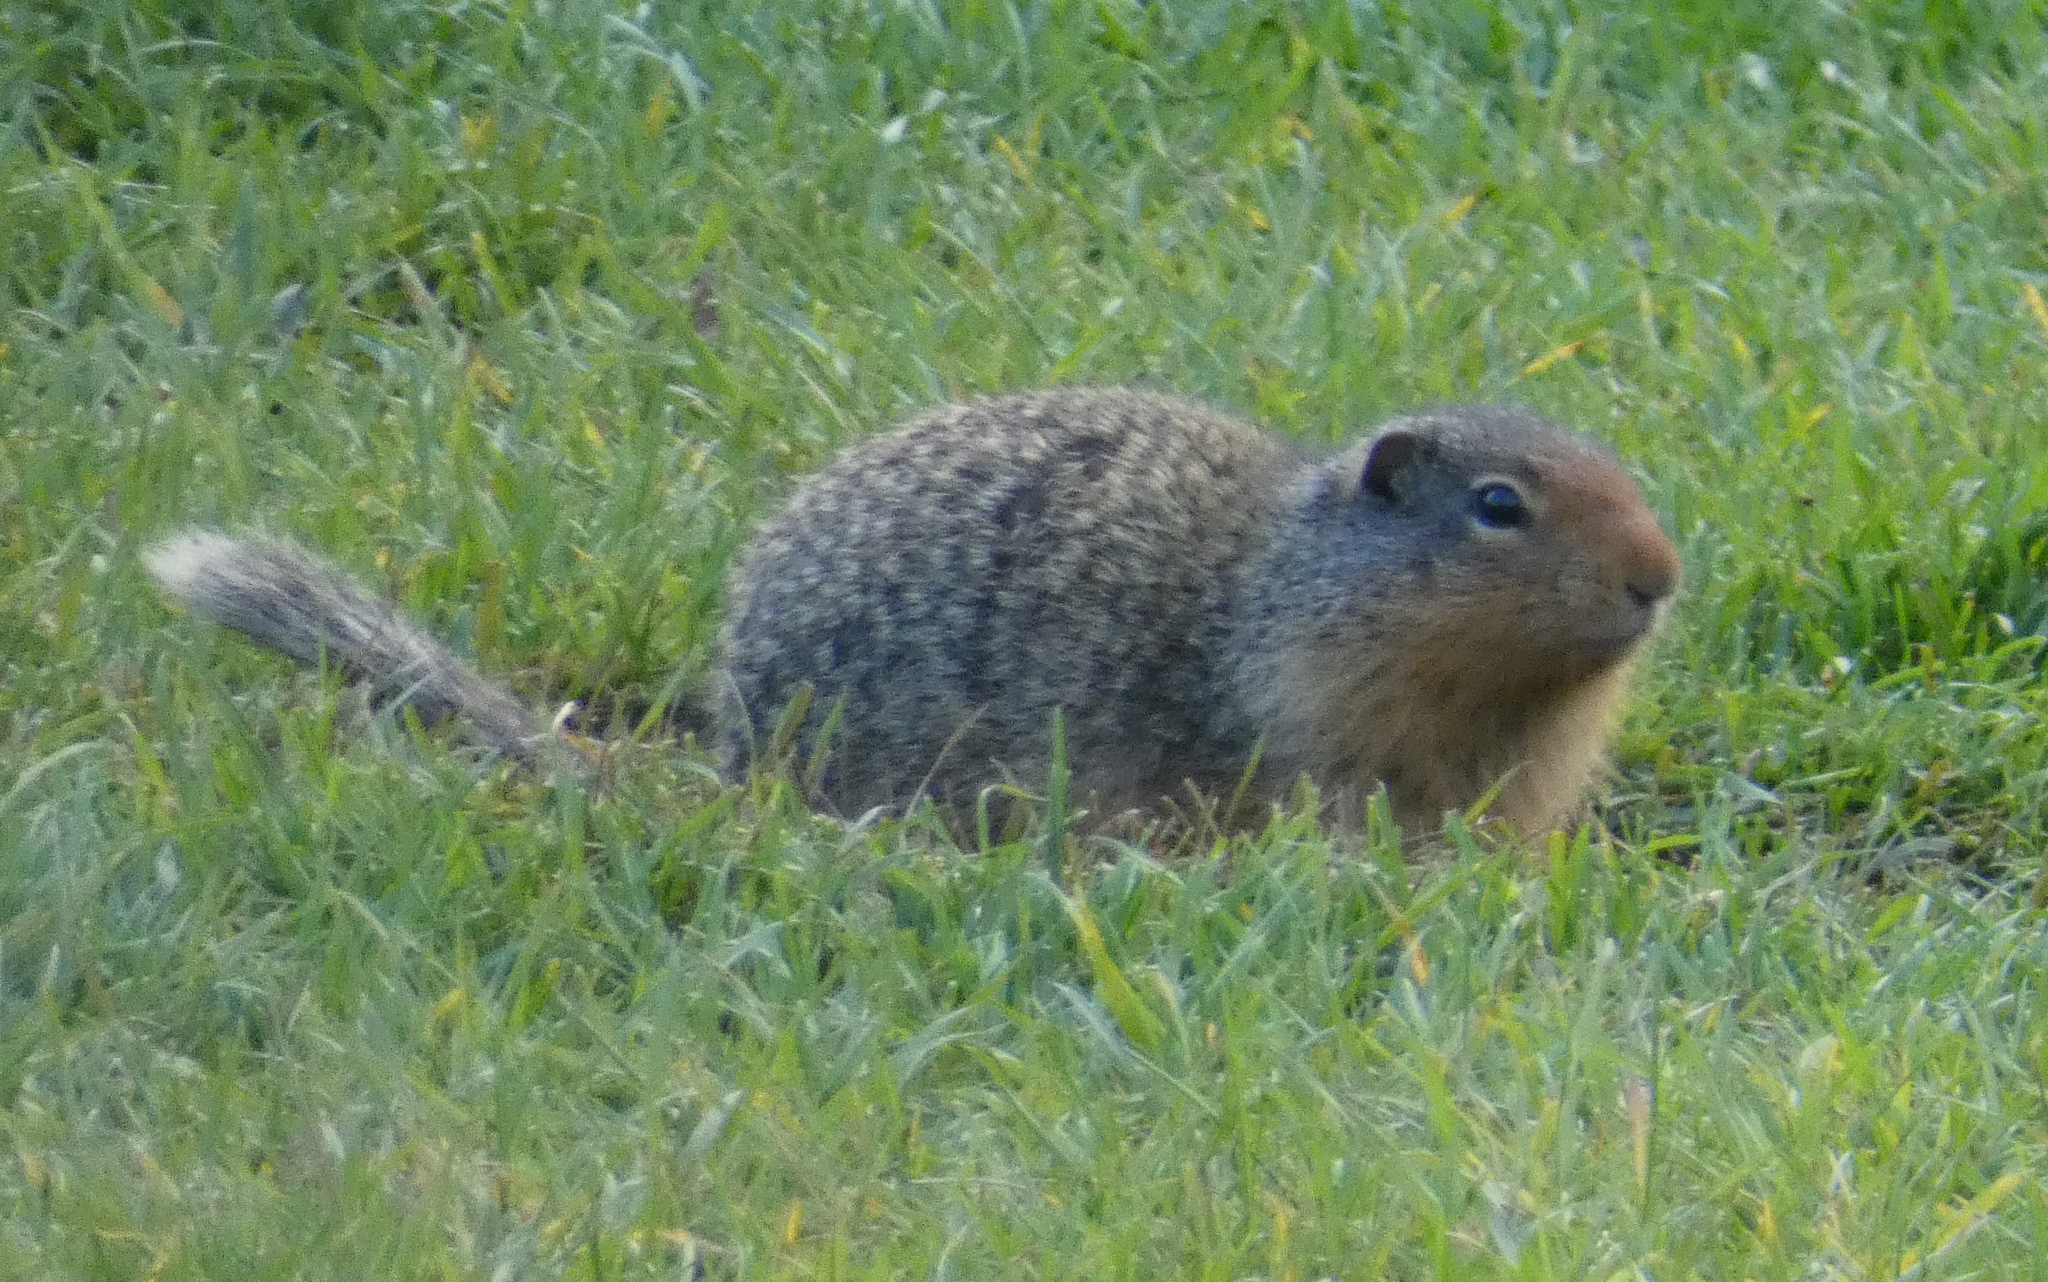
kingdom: Animalia
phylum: Chordata
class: Mammalia
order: Rodentia
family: Sciuridae
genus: Urocitellus
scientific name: Urocitellus columbianus
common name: Columbian ground squirrel
